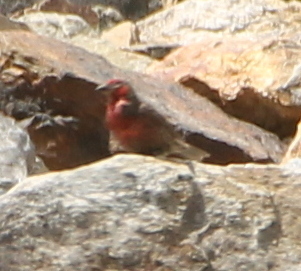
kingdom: Animalia
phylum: Chordata
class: Aves
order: Passeriformes
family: Fringillidae
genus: Carpodacus
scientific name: Carpodacus puniceus
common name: Red-fronted rosefinch
